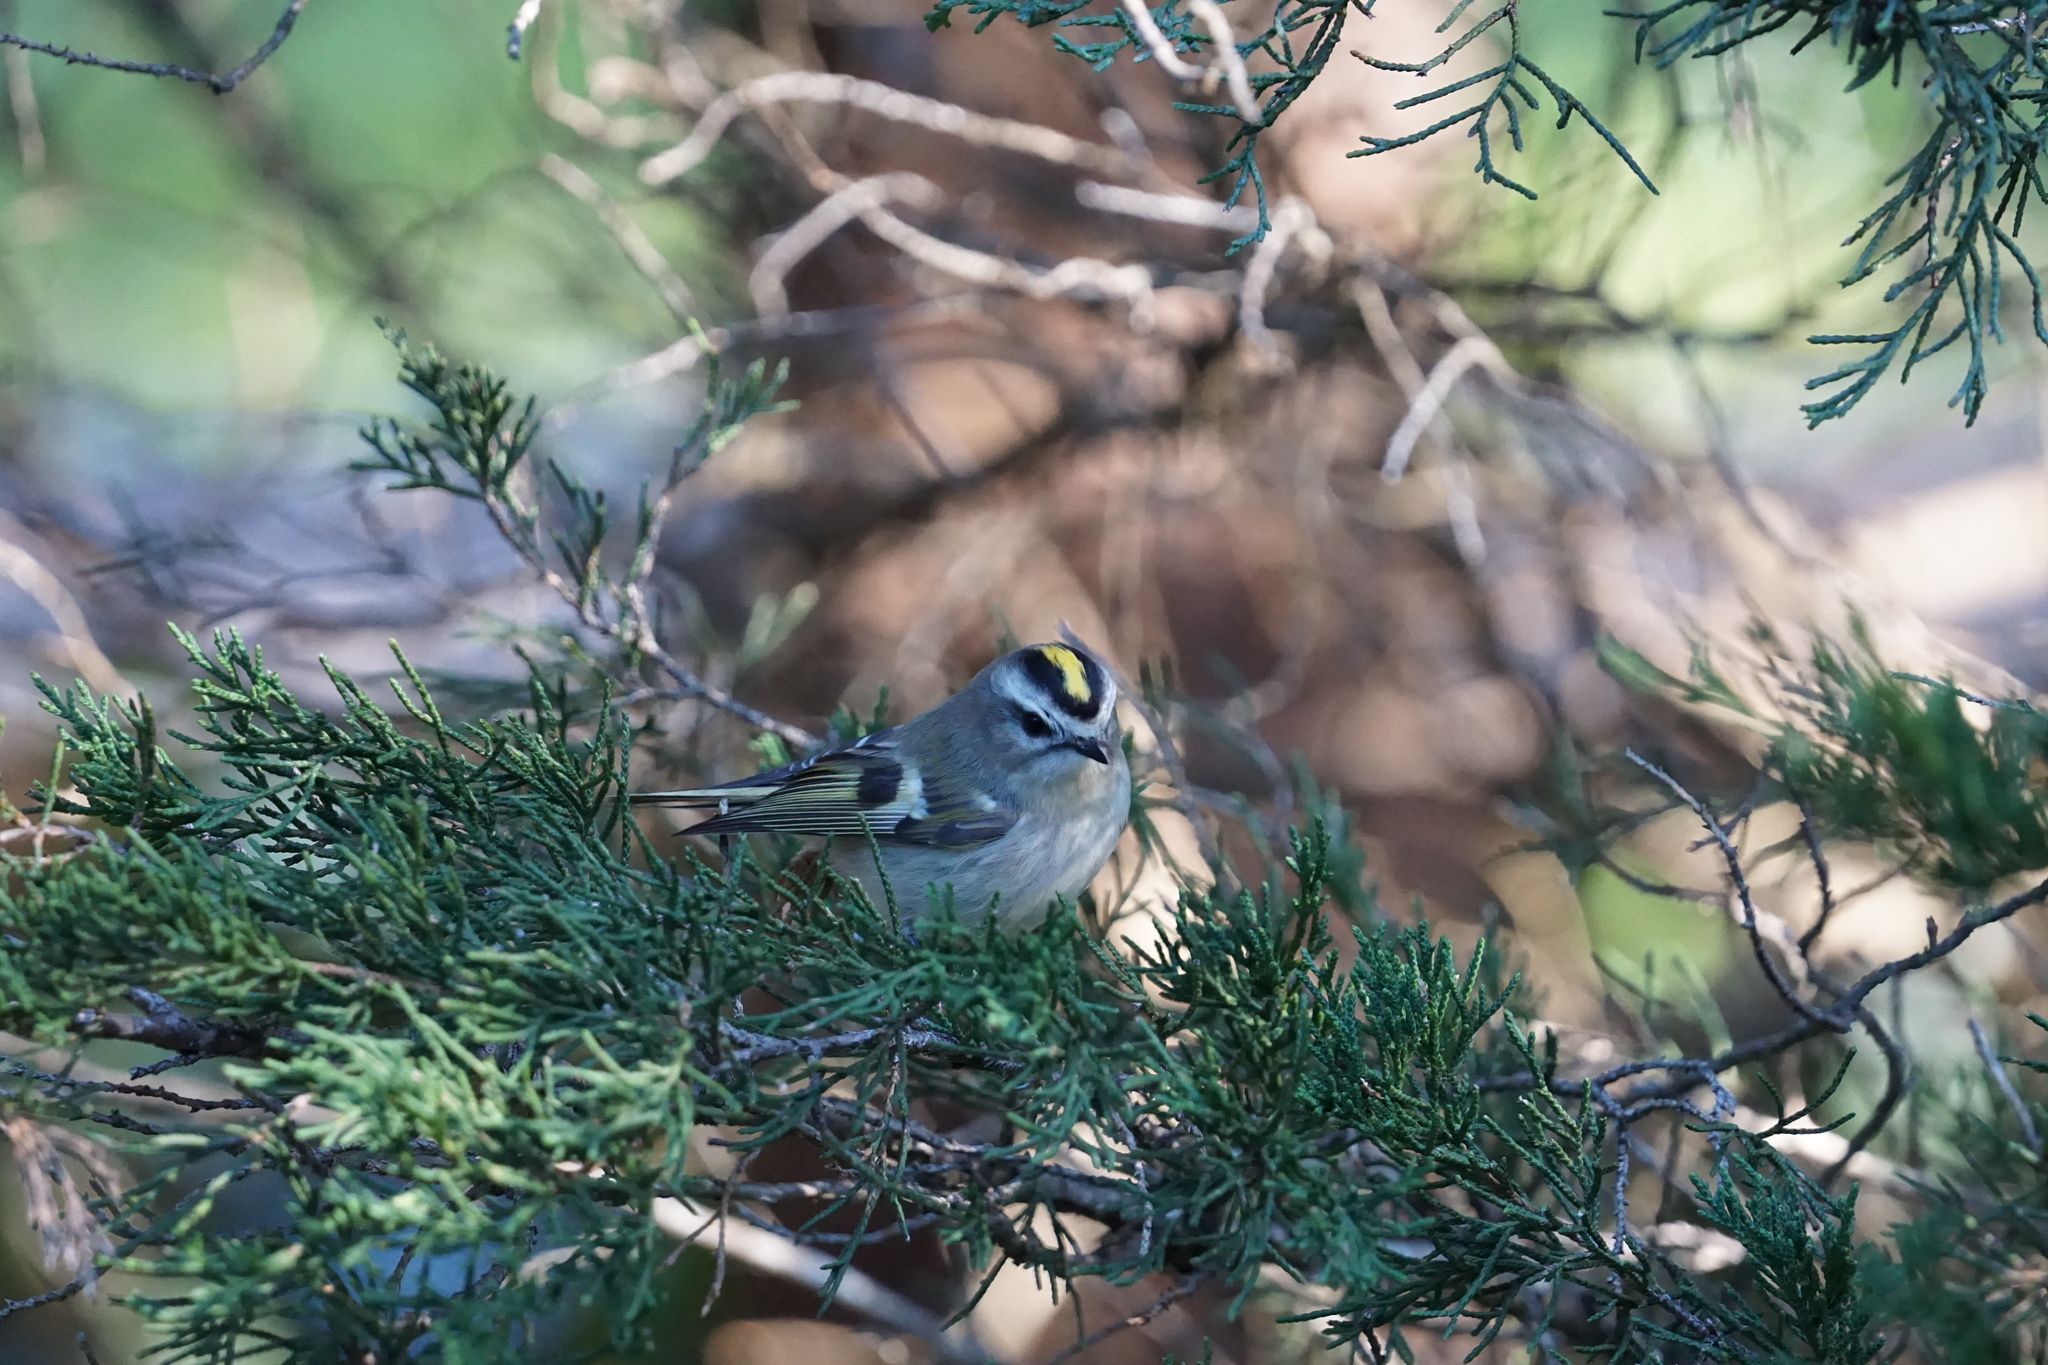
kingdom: Animalia
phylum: Chordata
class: Aves
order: Passeriformes
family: Regulidae
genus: Regulus
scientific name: Regulus satrapa
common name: Golden-crowned kinglet
